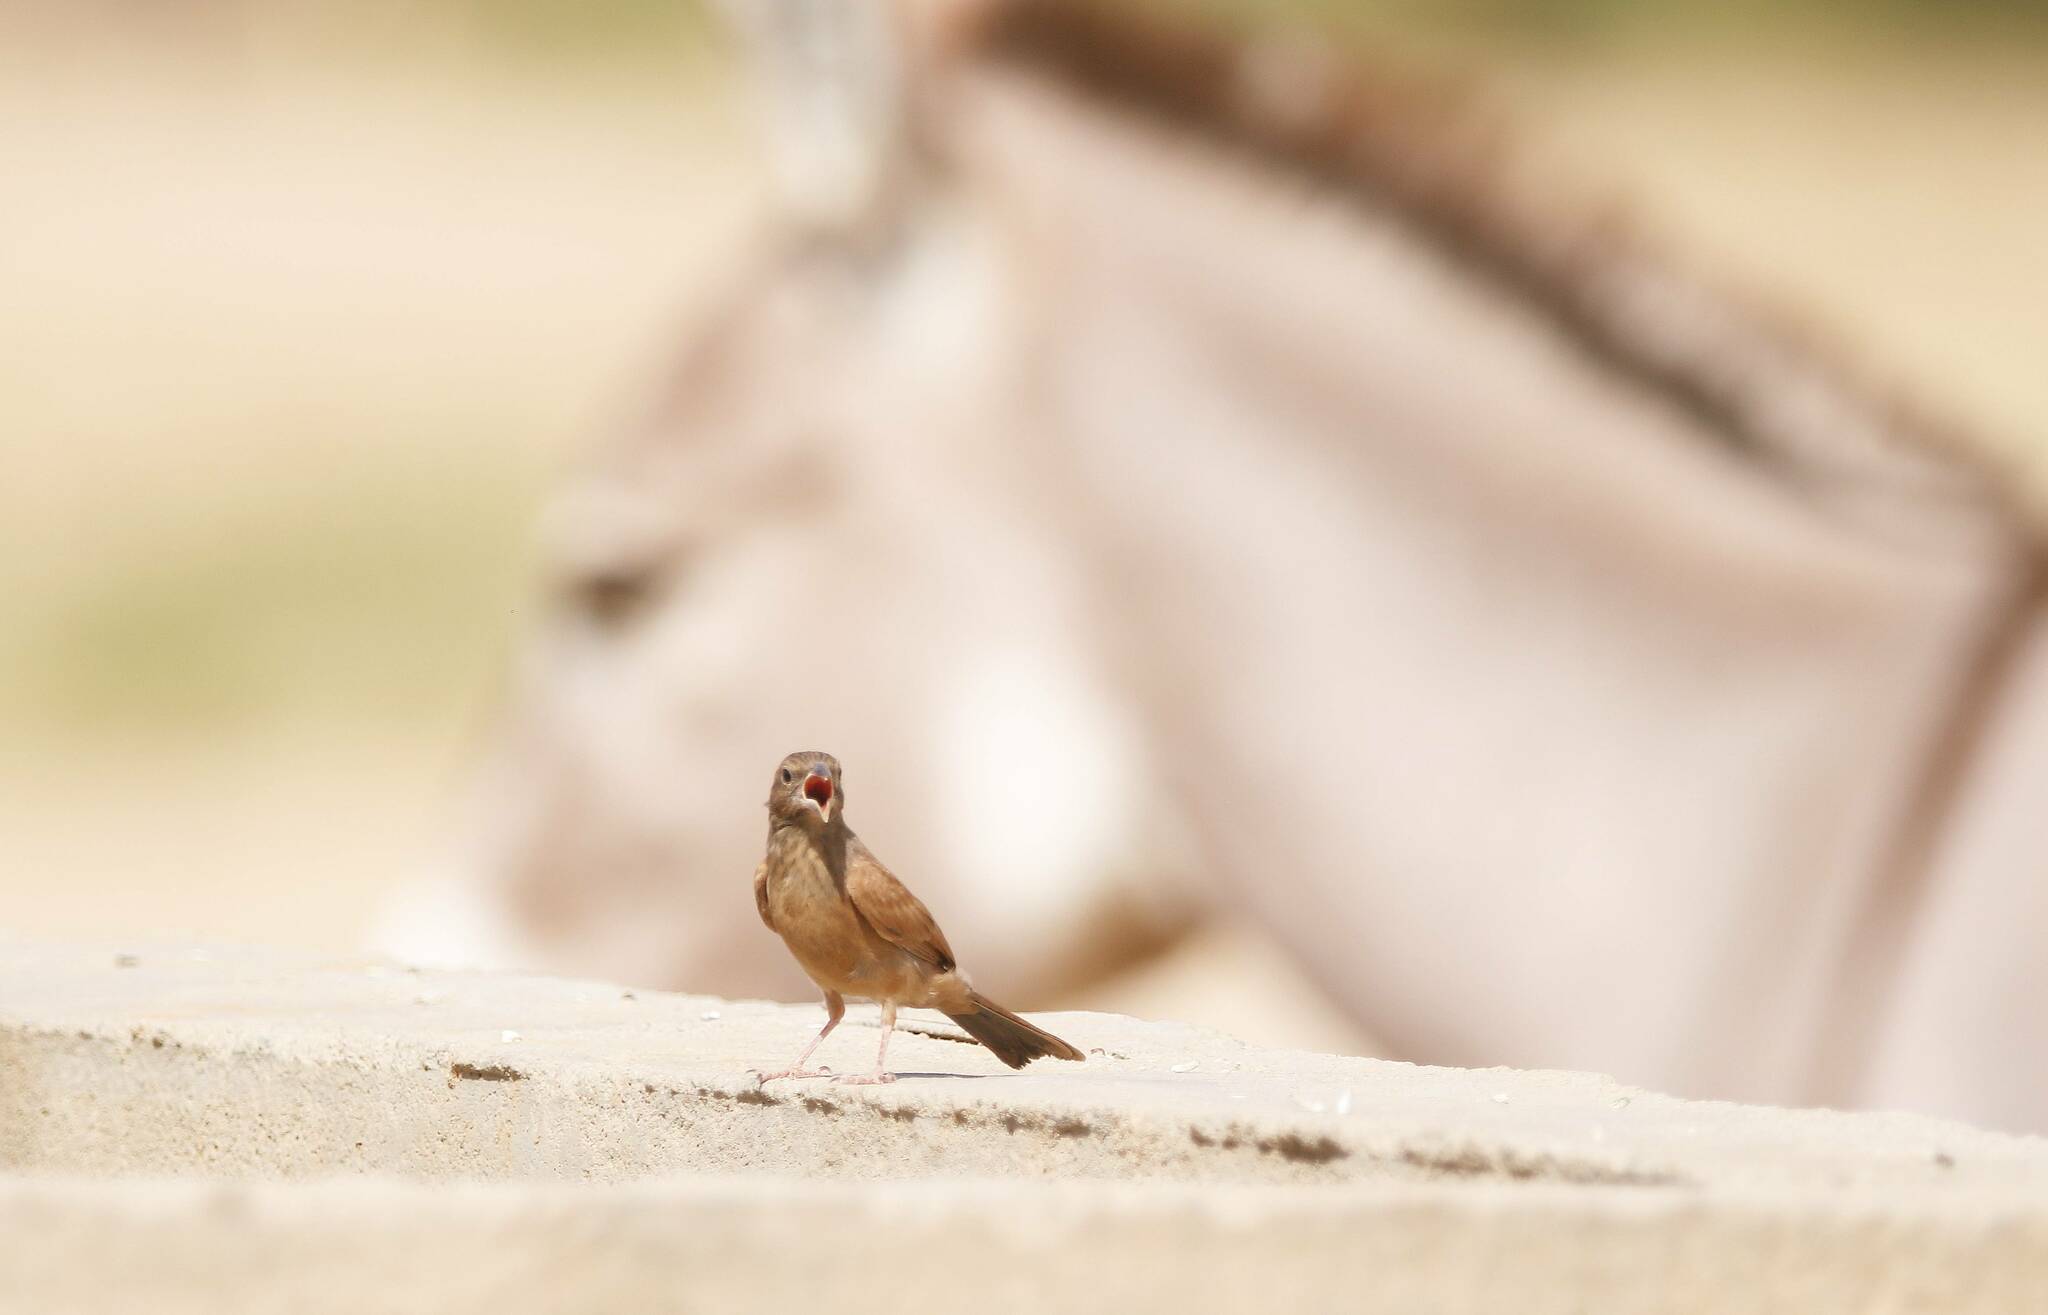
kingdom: Animalia
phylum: Chordata
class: Aves
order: Passeriformes
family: Emberizidae
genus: Emberiza
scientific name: Emberiza sahari
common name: House bunting
